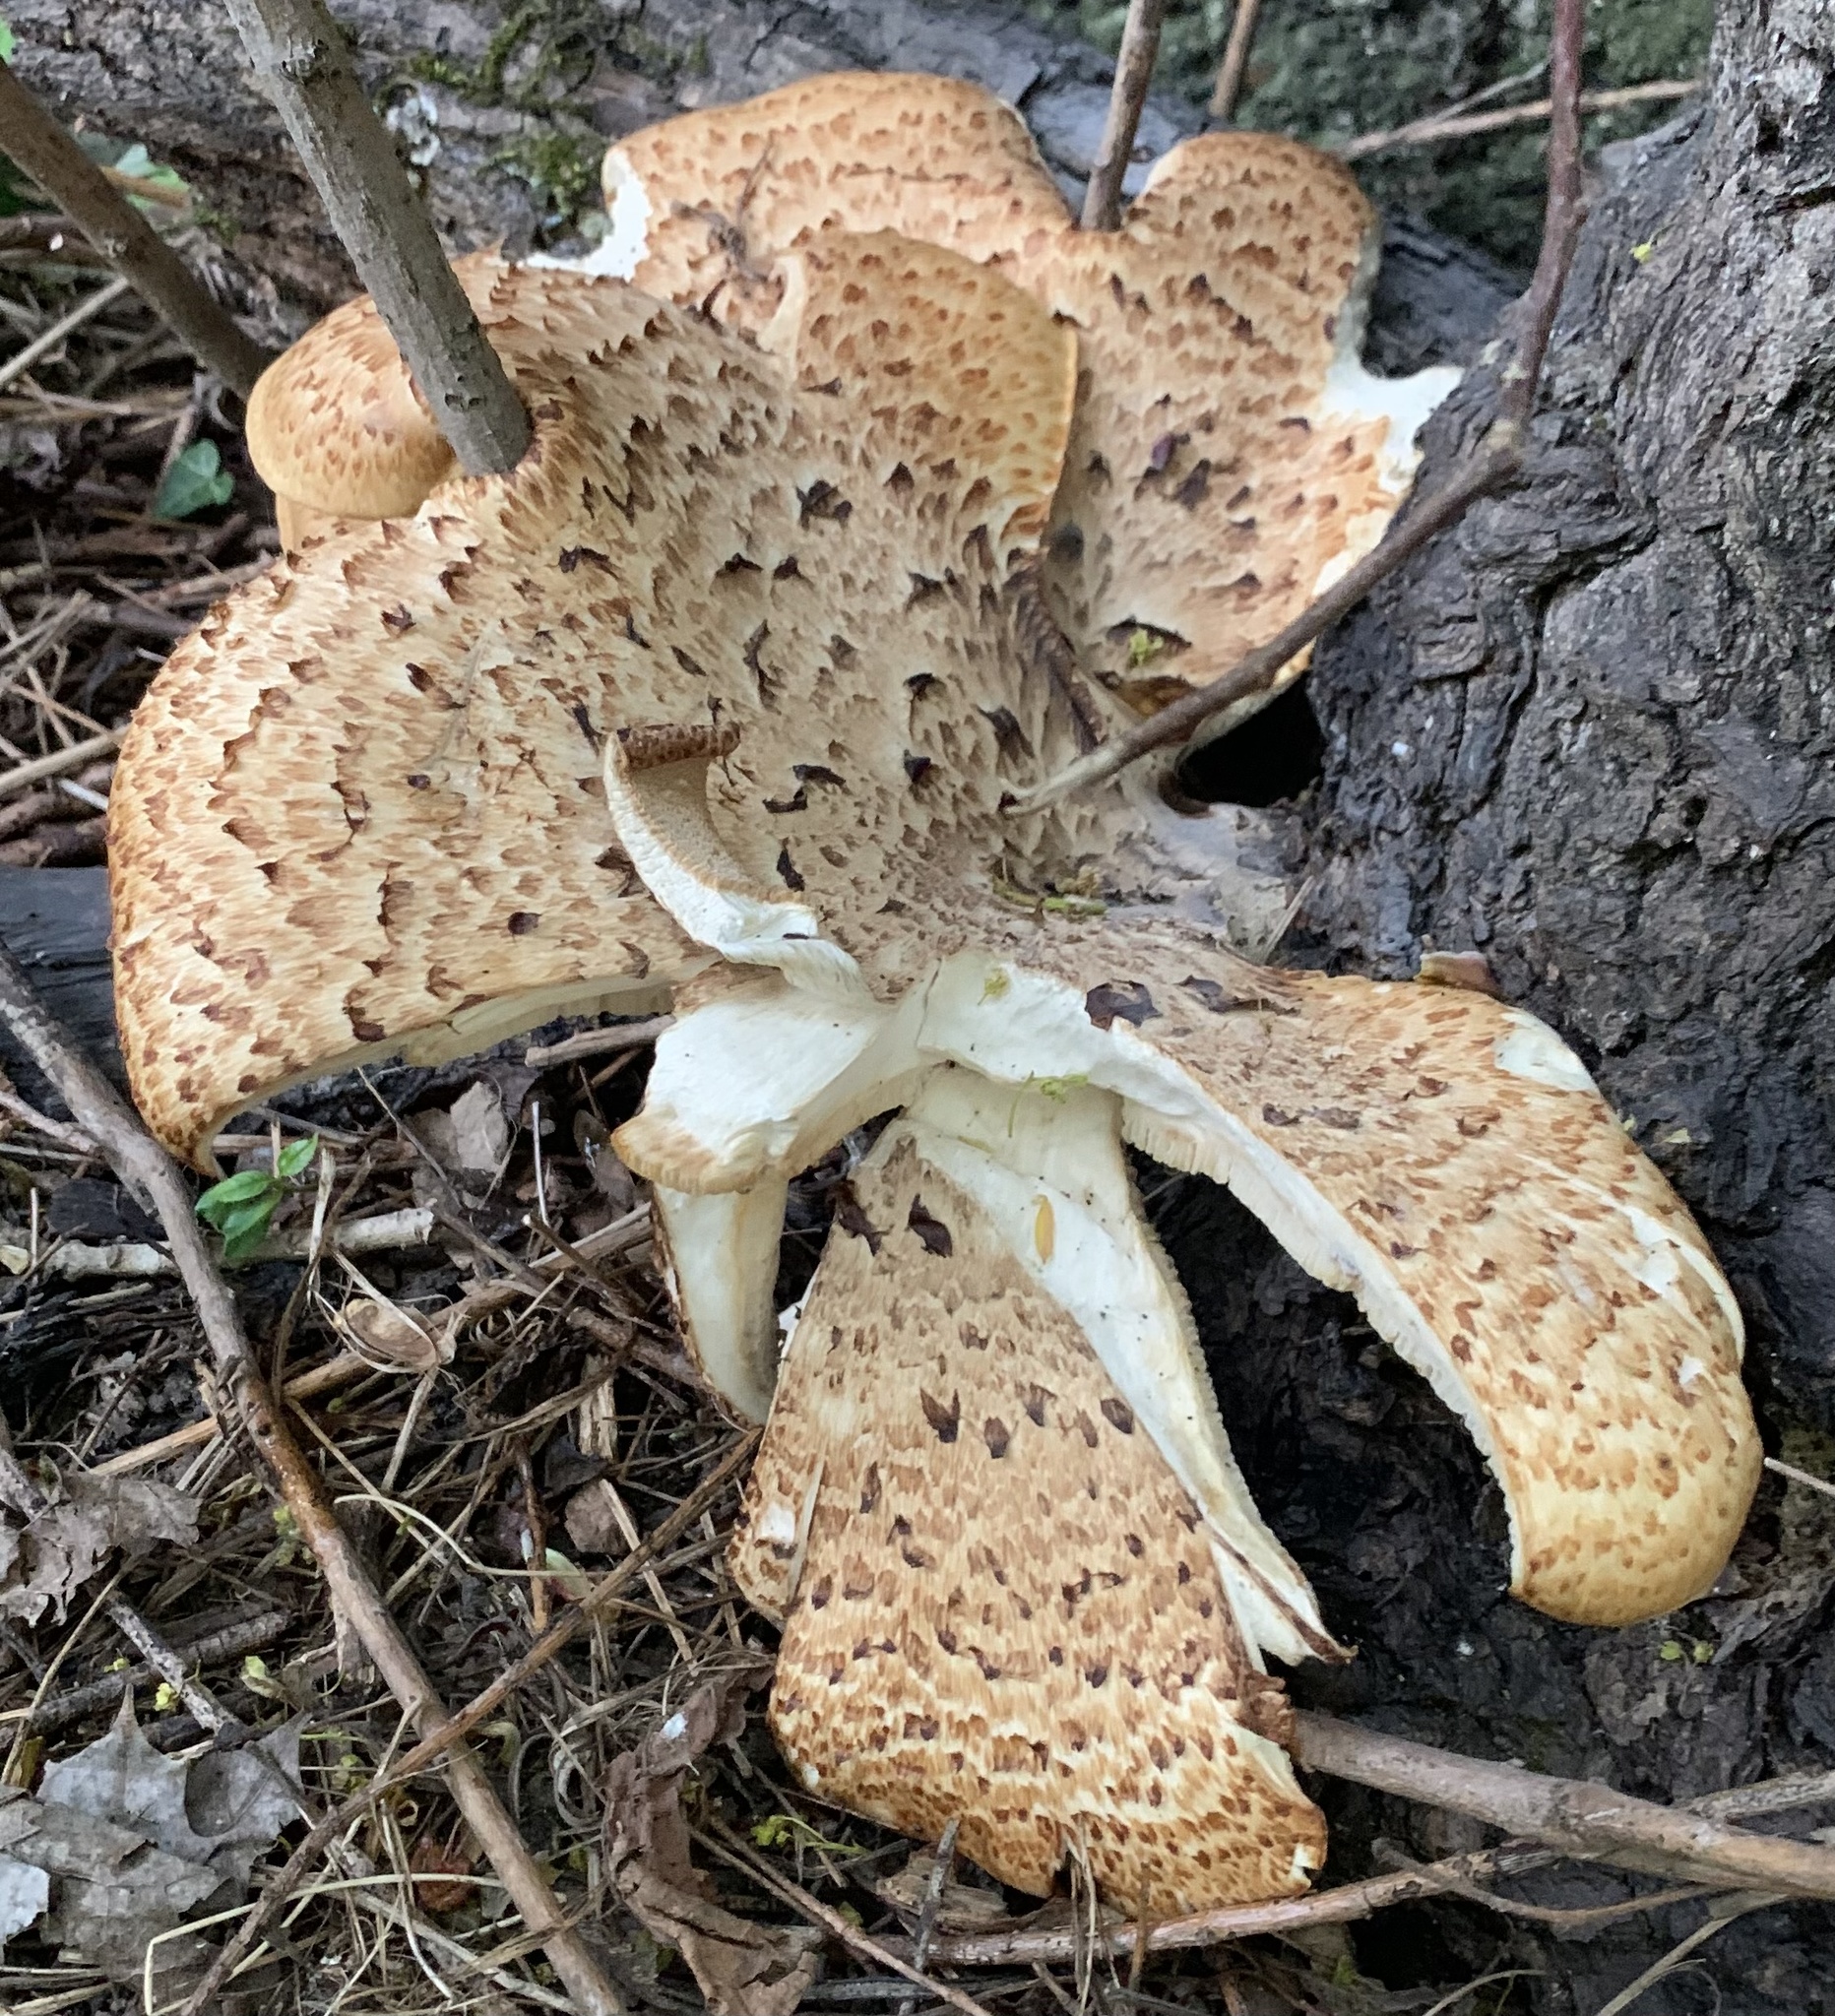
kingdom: Fungi
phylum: Basidiomycota
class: Agaricomycetes
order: Polyporales
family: Polyporaceae
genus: Cerioporus
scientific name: Cerioporus squamosus
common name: Dryad's saddle
